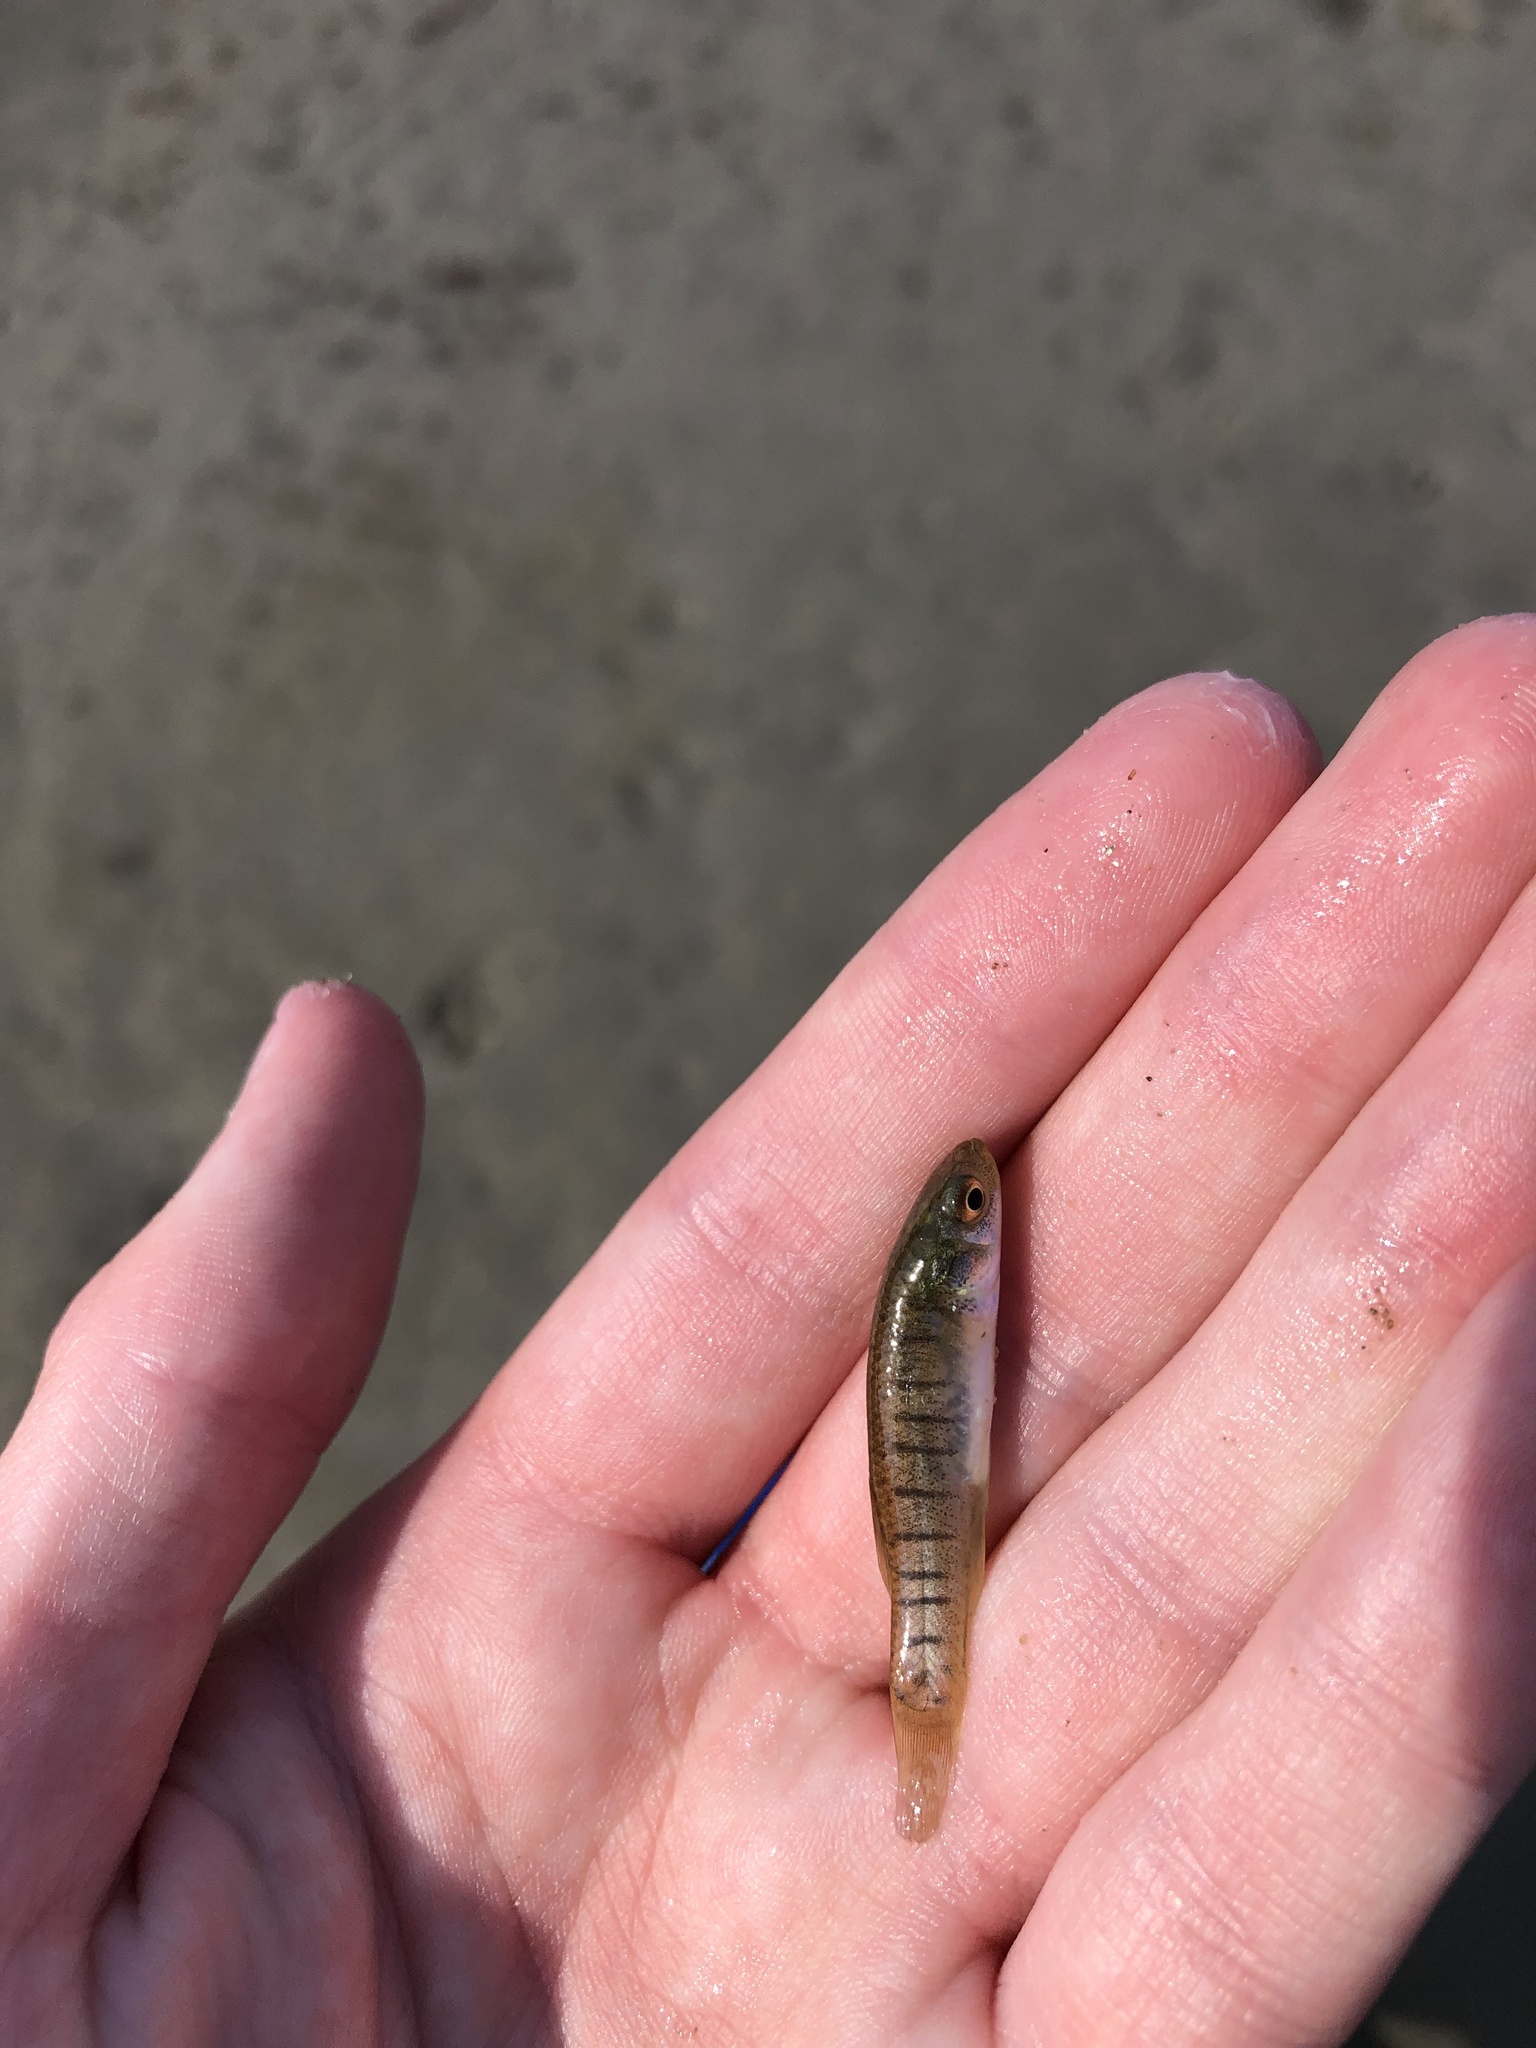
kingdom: Animalia
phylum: Chordata
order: Cyprinodontiformes
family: Fundulidae
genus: Fundulus
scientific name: Fundulus heteroclitus
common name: Mummichog
